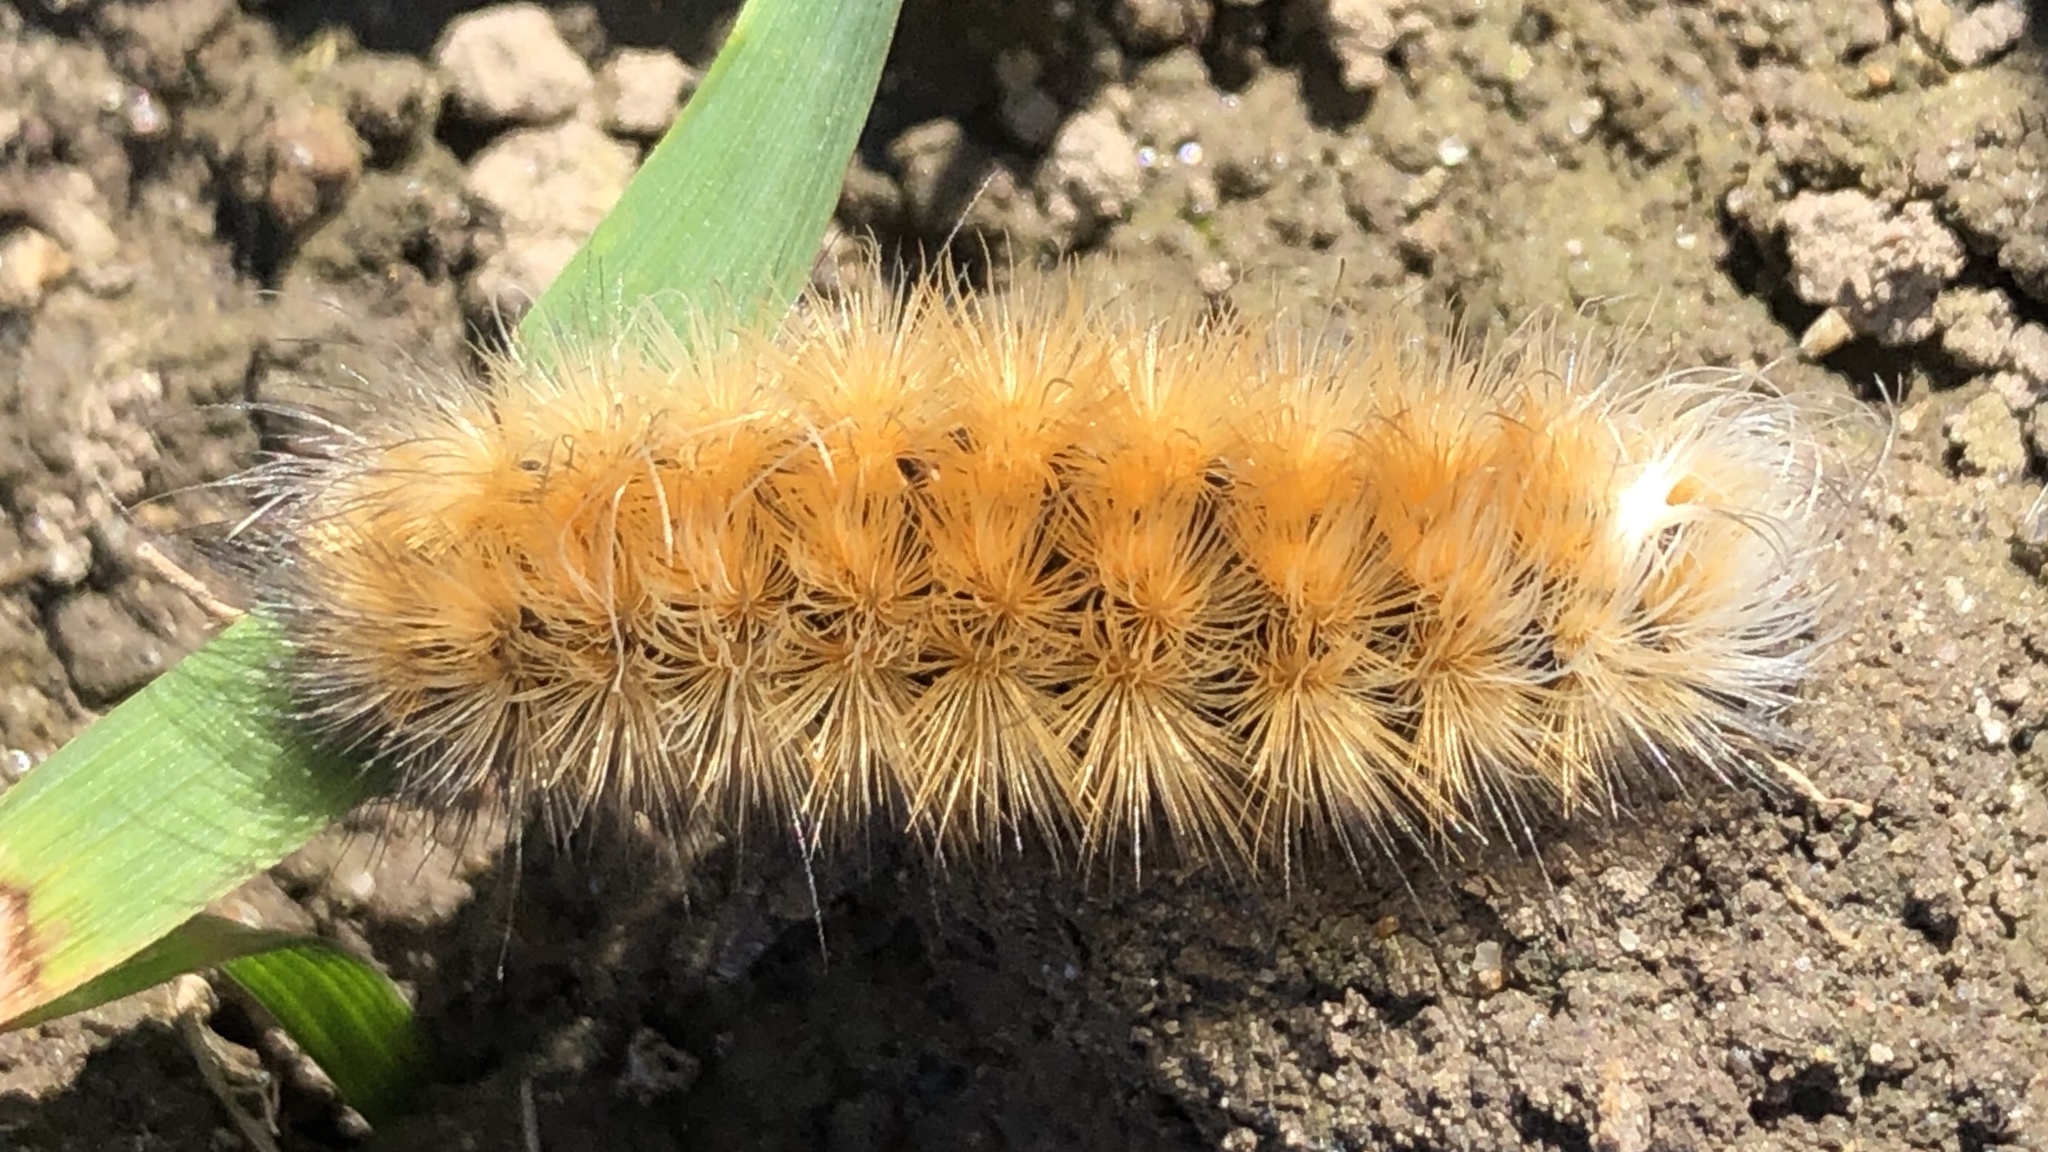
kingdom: Animalia
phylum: Arthropoda
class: Insecta
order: Lepidoptera
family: Erebidae
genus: Spilosoma
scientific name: Spilosoma virginica
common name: Virginia tiger moth
